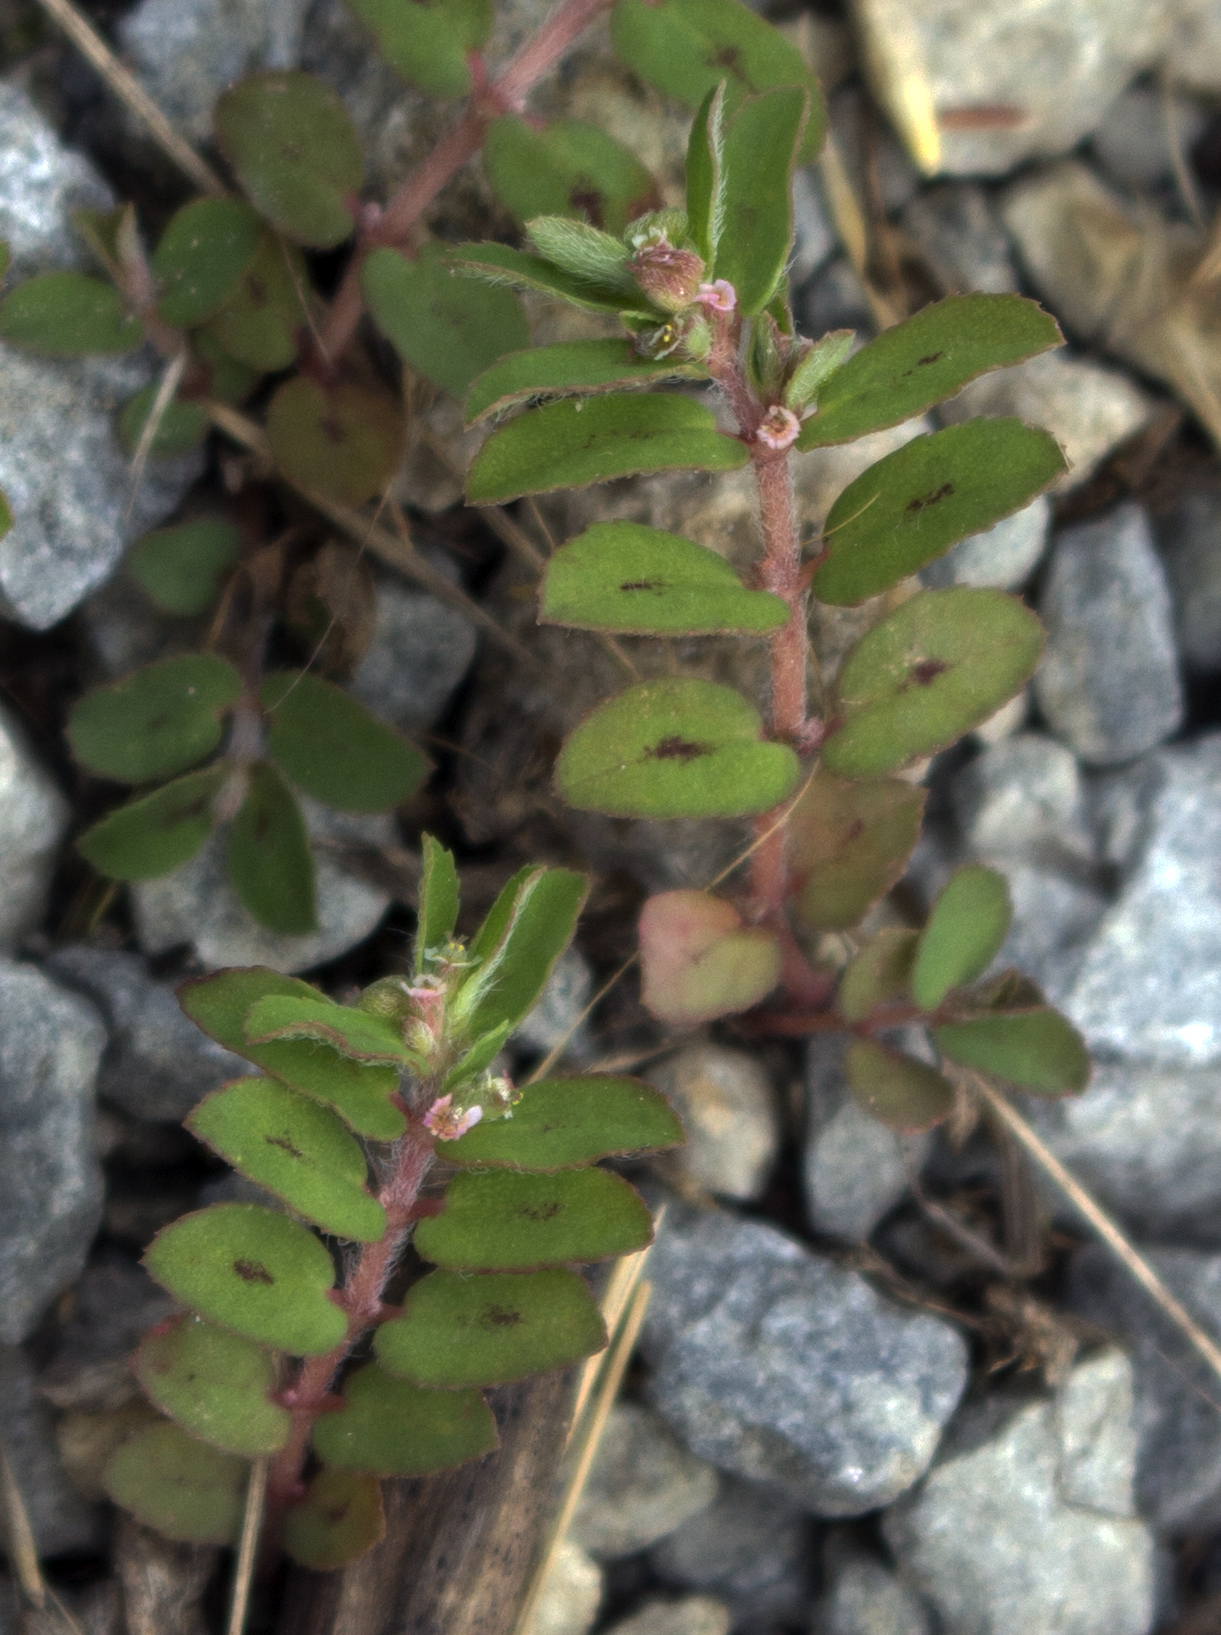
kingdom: Plantae
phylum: Tracheophyta
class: Magnoliopsida
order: Malpighiales
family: Euphorbiaceae
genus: Euphorbia
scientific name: Euphorbia maculata
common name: Spotted spurge
